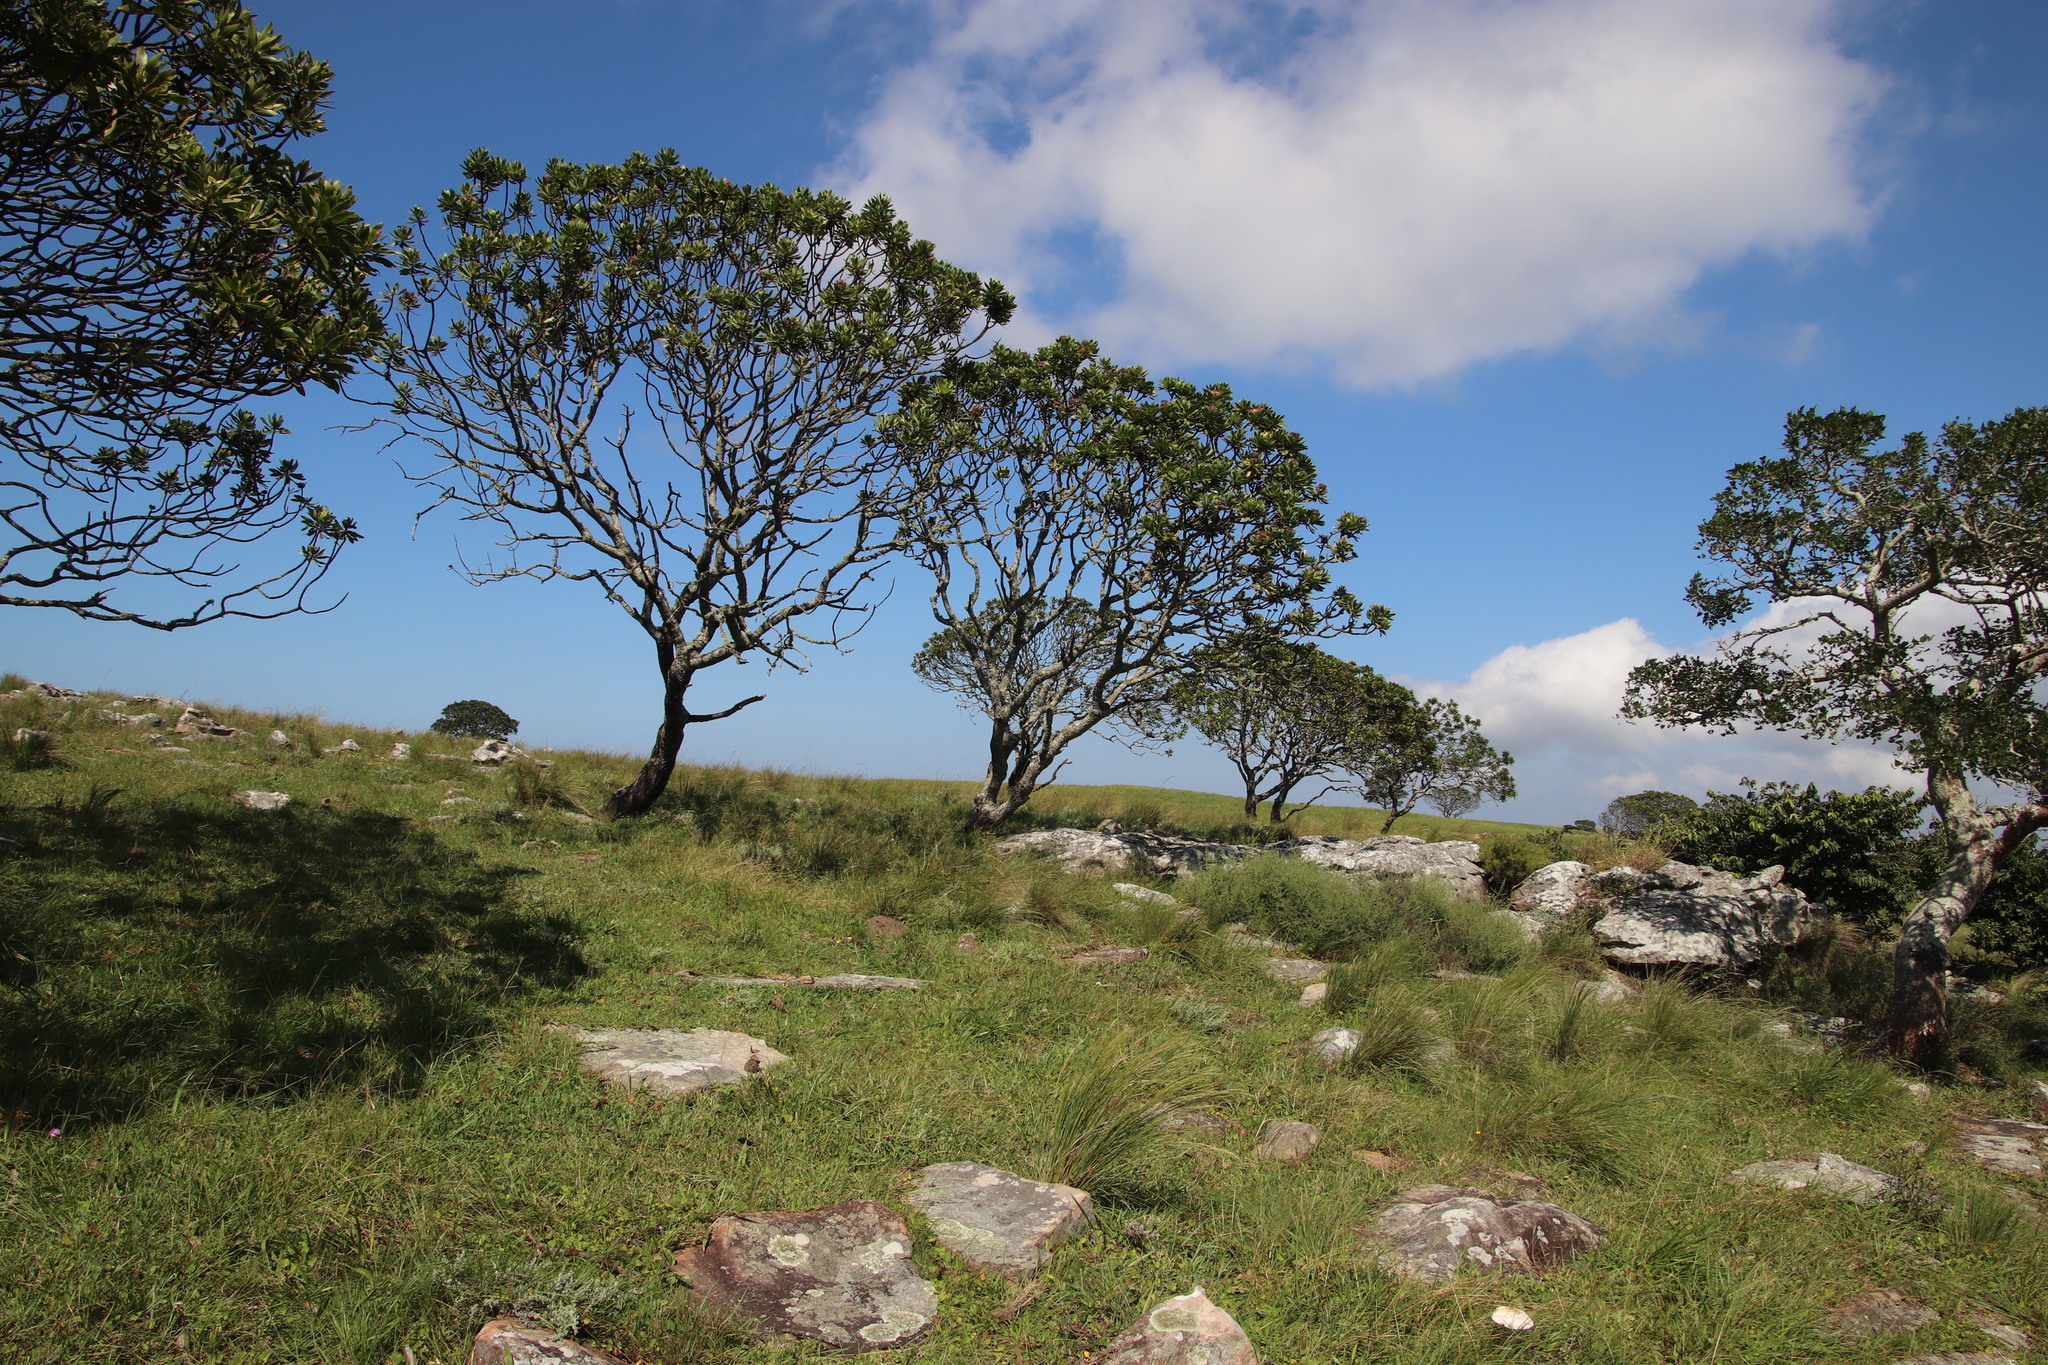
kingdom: Plantae
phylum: Tracheophyta
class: Magnoliopsida
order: Proteales
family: Proteaceae
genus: Protea
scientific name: Protea roupelliae
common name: Silver sugarbush
